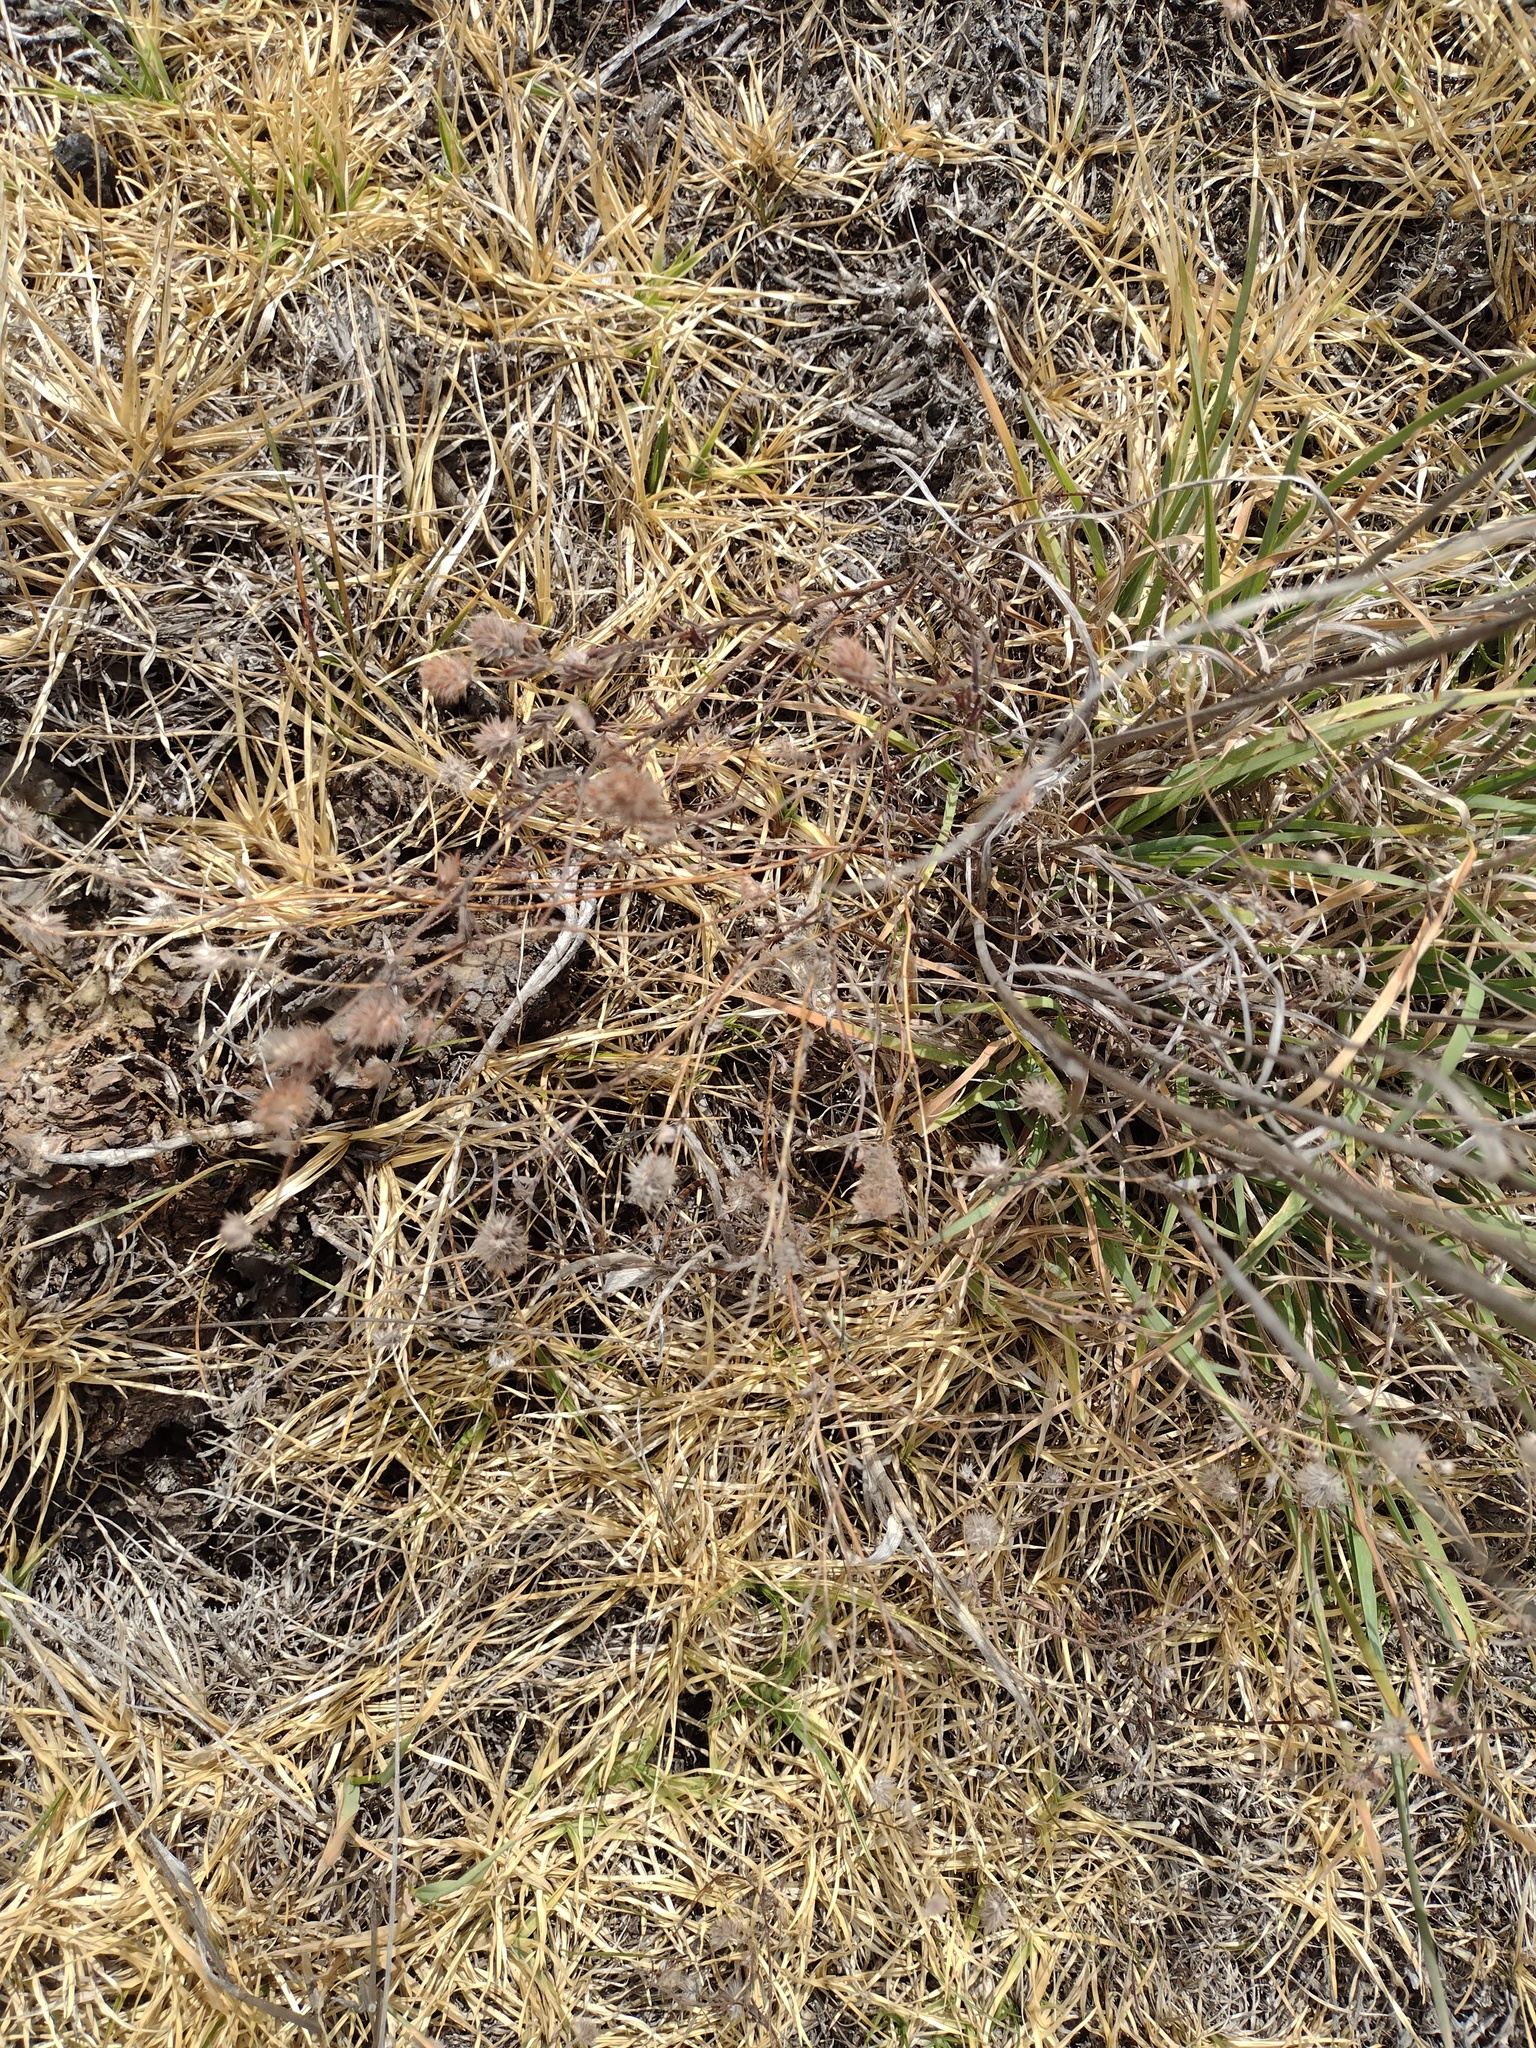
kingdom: Plantae
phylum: Tracheophyta
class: Magnoliopsida
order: Fabales
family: Fabaceae
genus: Trifolium
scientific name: Trifolium arvense
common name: Hare's-foot clover
